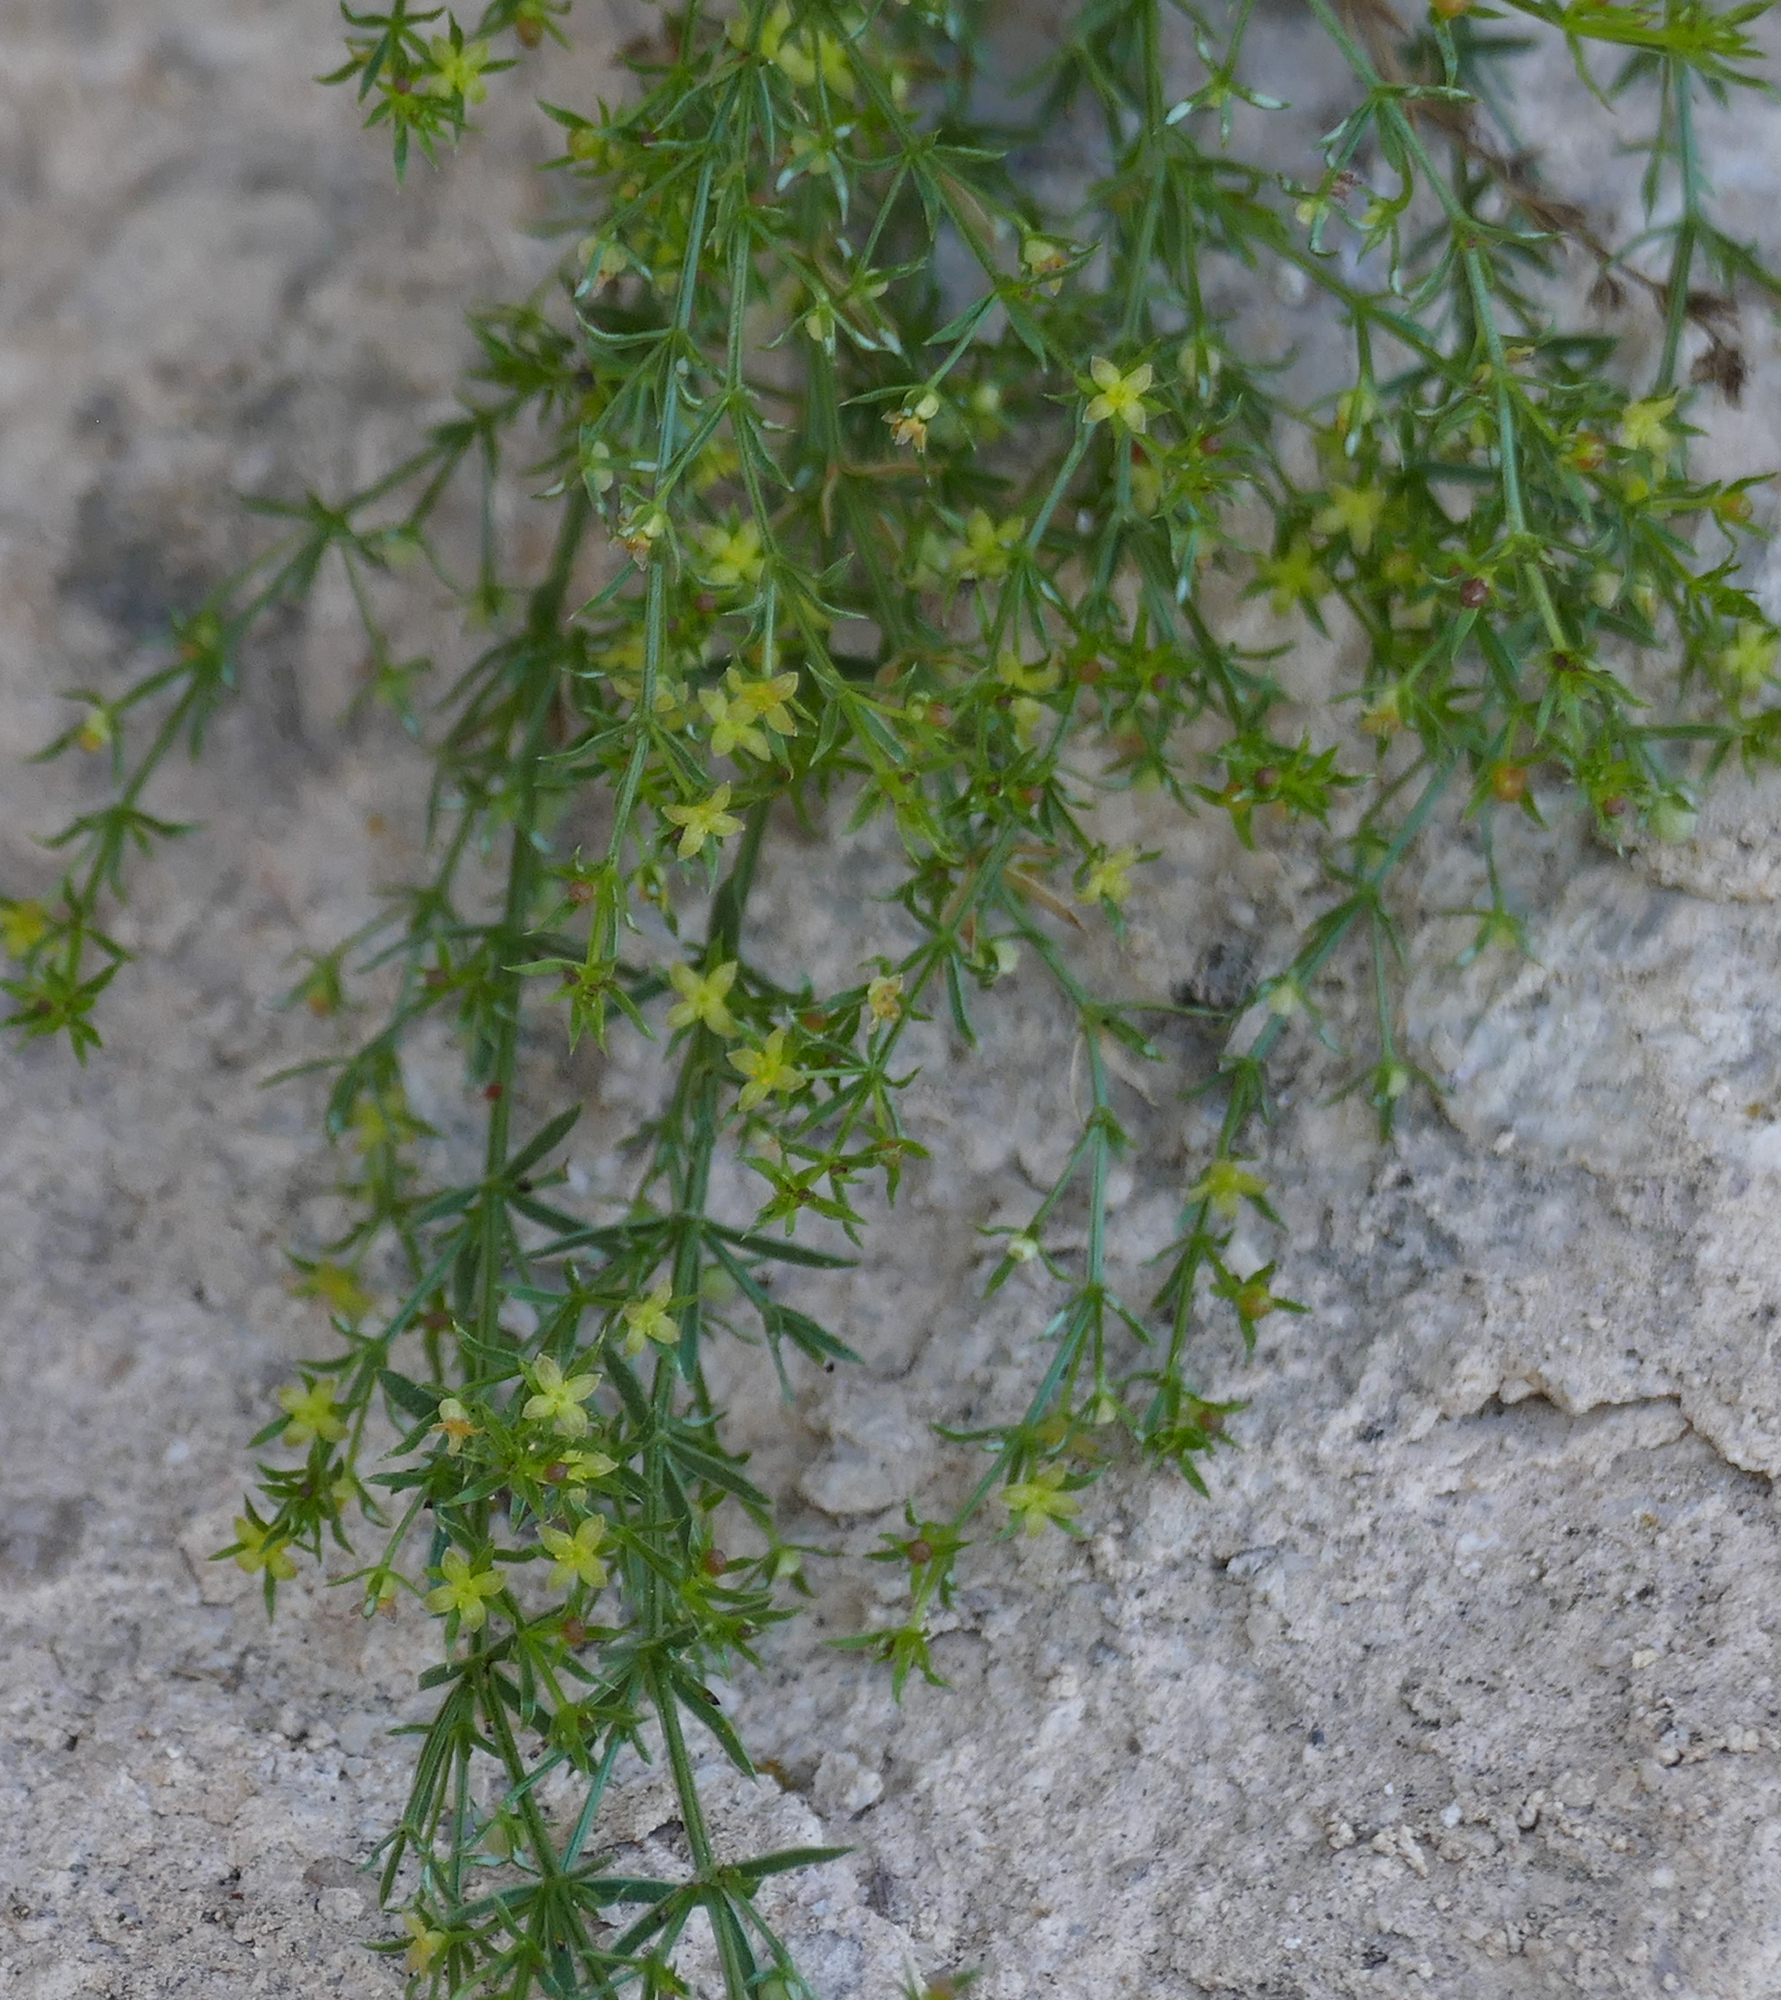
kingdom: Plantae
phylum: Tracheophyta
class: Magnoliopsida
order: Gentianales
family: Rubiaceae
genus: Galium
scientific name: Galium microphyllum
